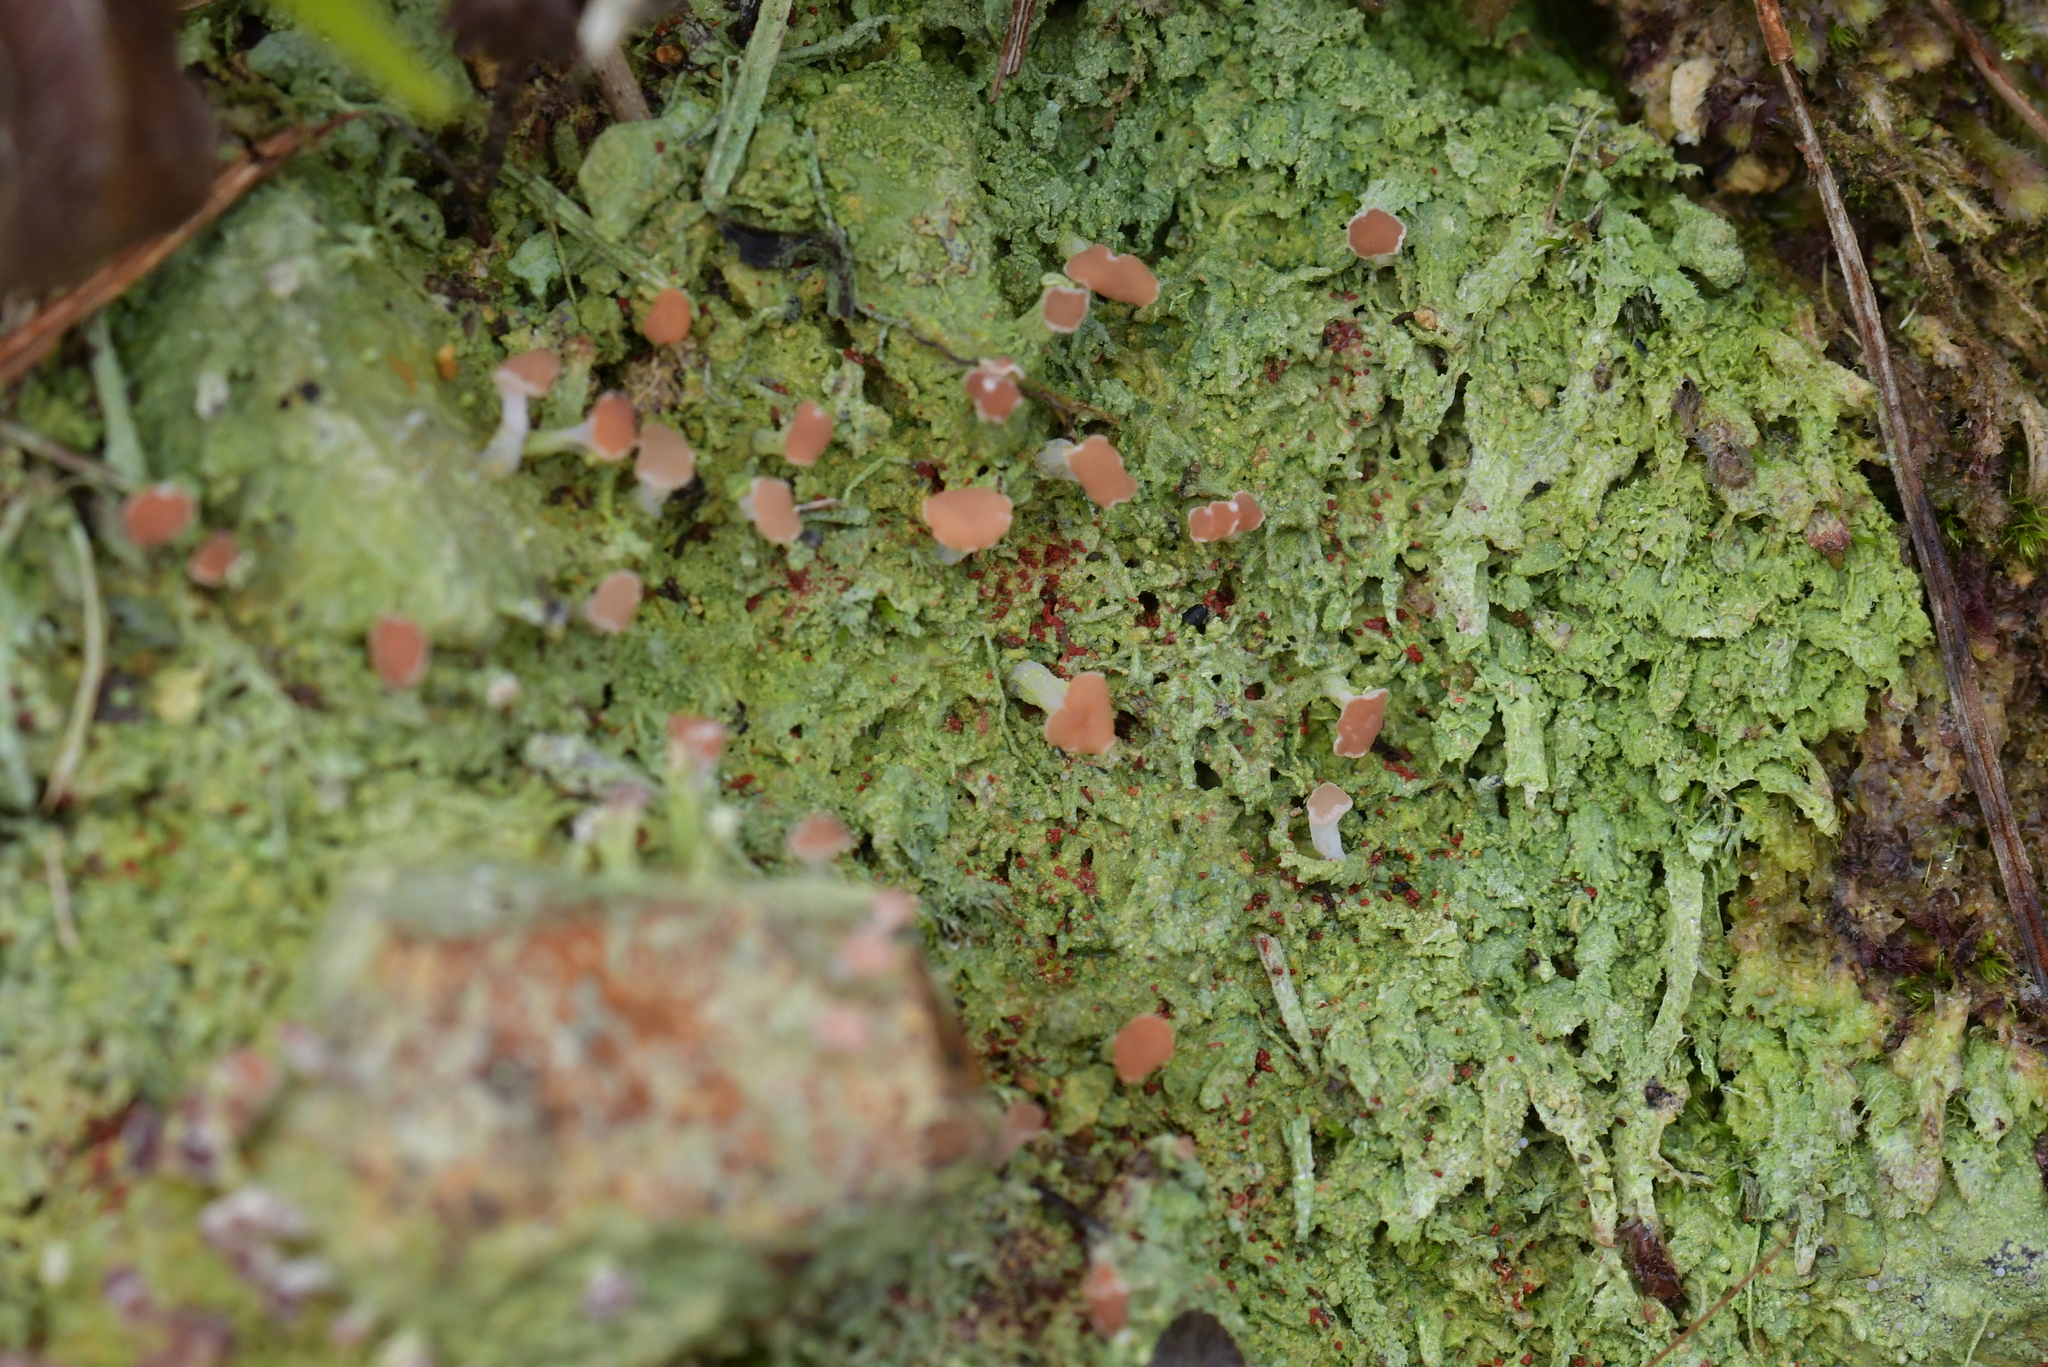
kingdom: Fungi
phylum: Ascomycota
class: Lecanoromycetes
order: Baeomycetales
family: Baeomycetaceae
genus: Baeomyces
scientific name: Baeomyces heteromorphus
